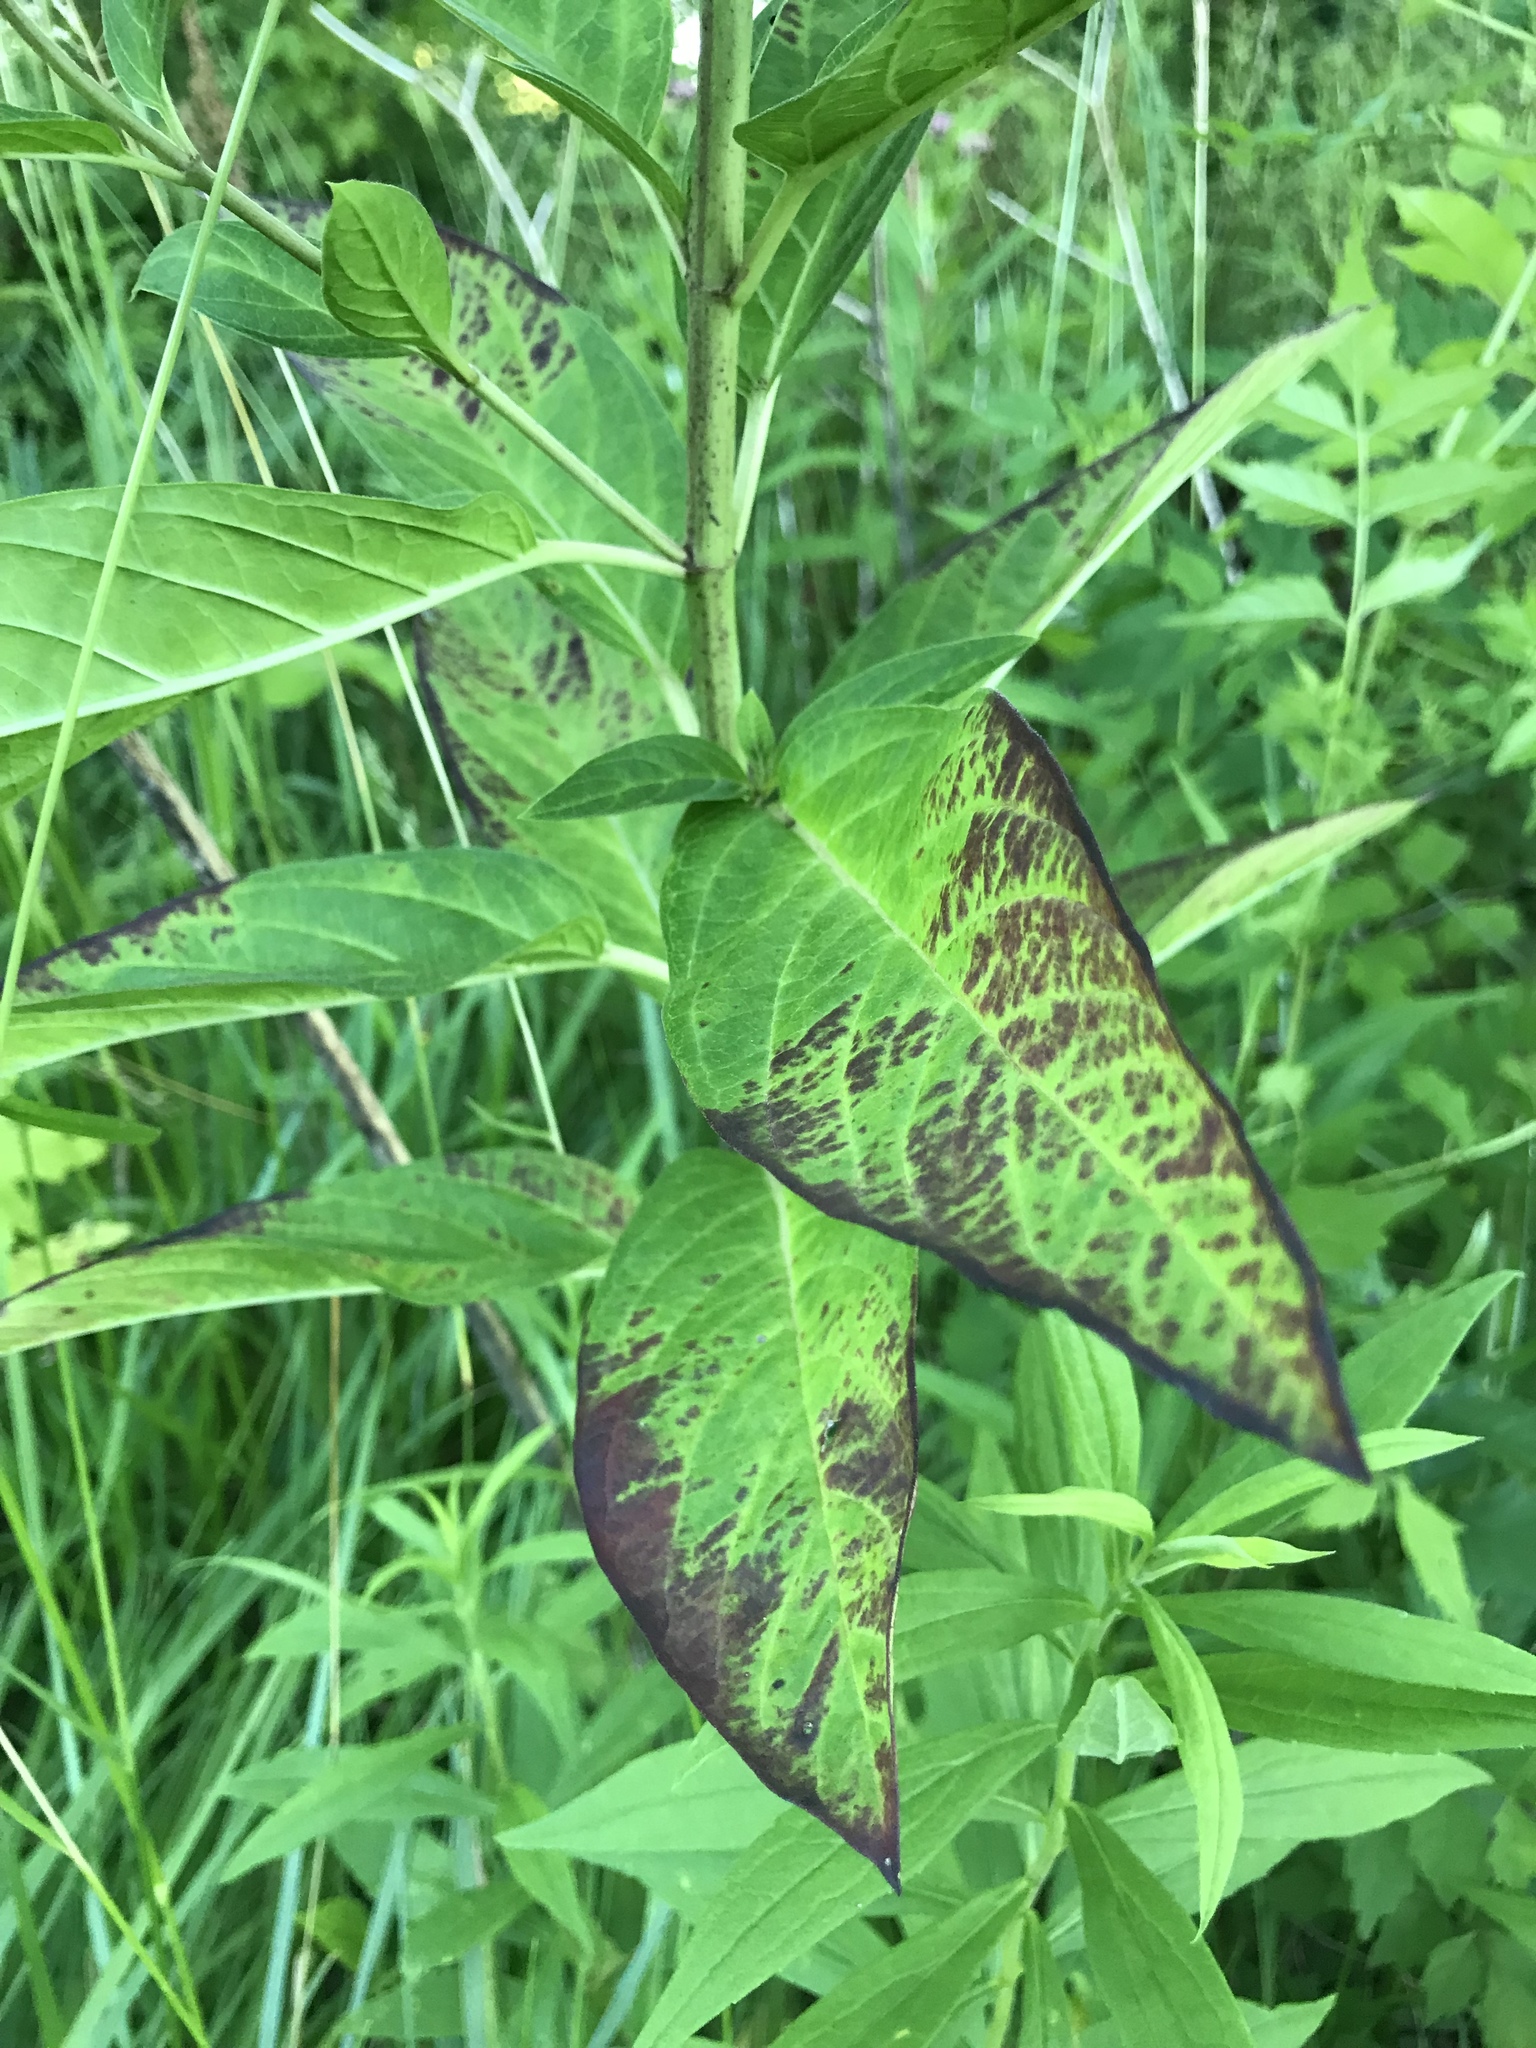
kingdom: Plantae
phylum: Tracheophyta
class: Magnoliopsida
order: Gentianales
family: Apocynaceae
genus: Asclepias
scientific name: Asclepias incarnata
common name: Swamp milkweed
